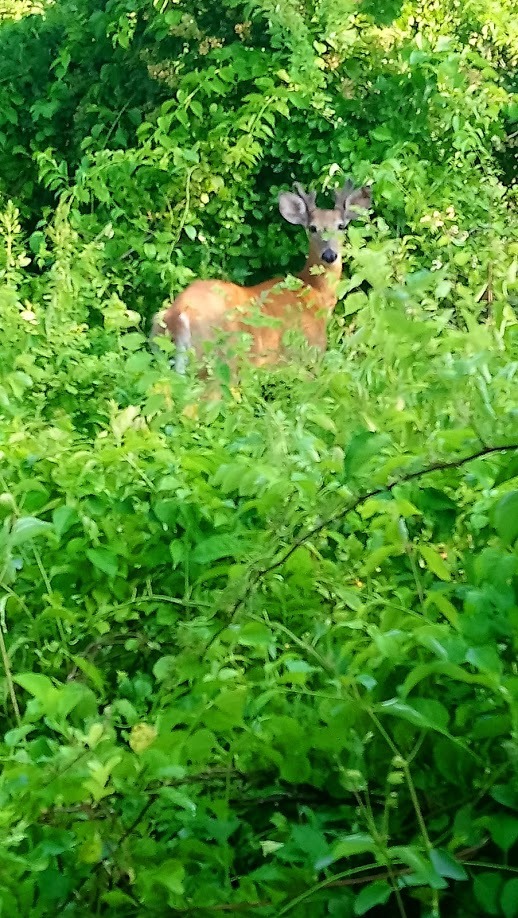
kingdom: Animalia
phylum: Chordata
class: Mammalia
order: Artiodactyla
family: Cervidae
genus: Odocoileus
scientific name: Odocoileus virginianus
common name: White-tailed deer
